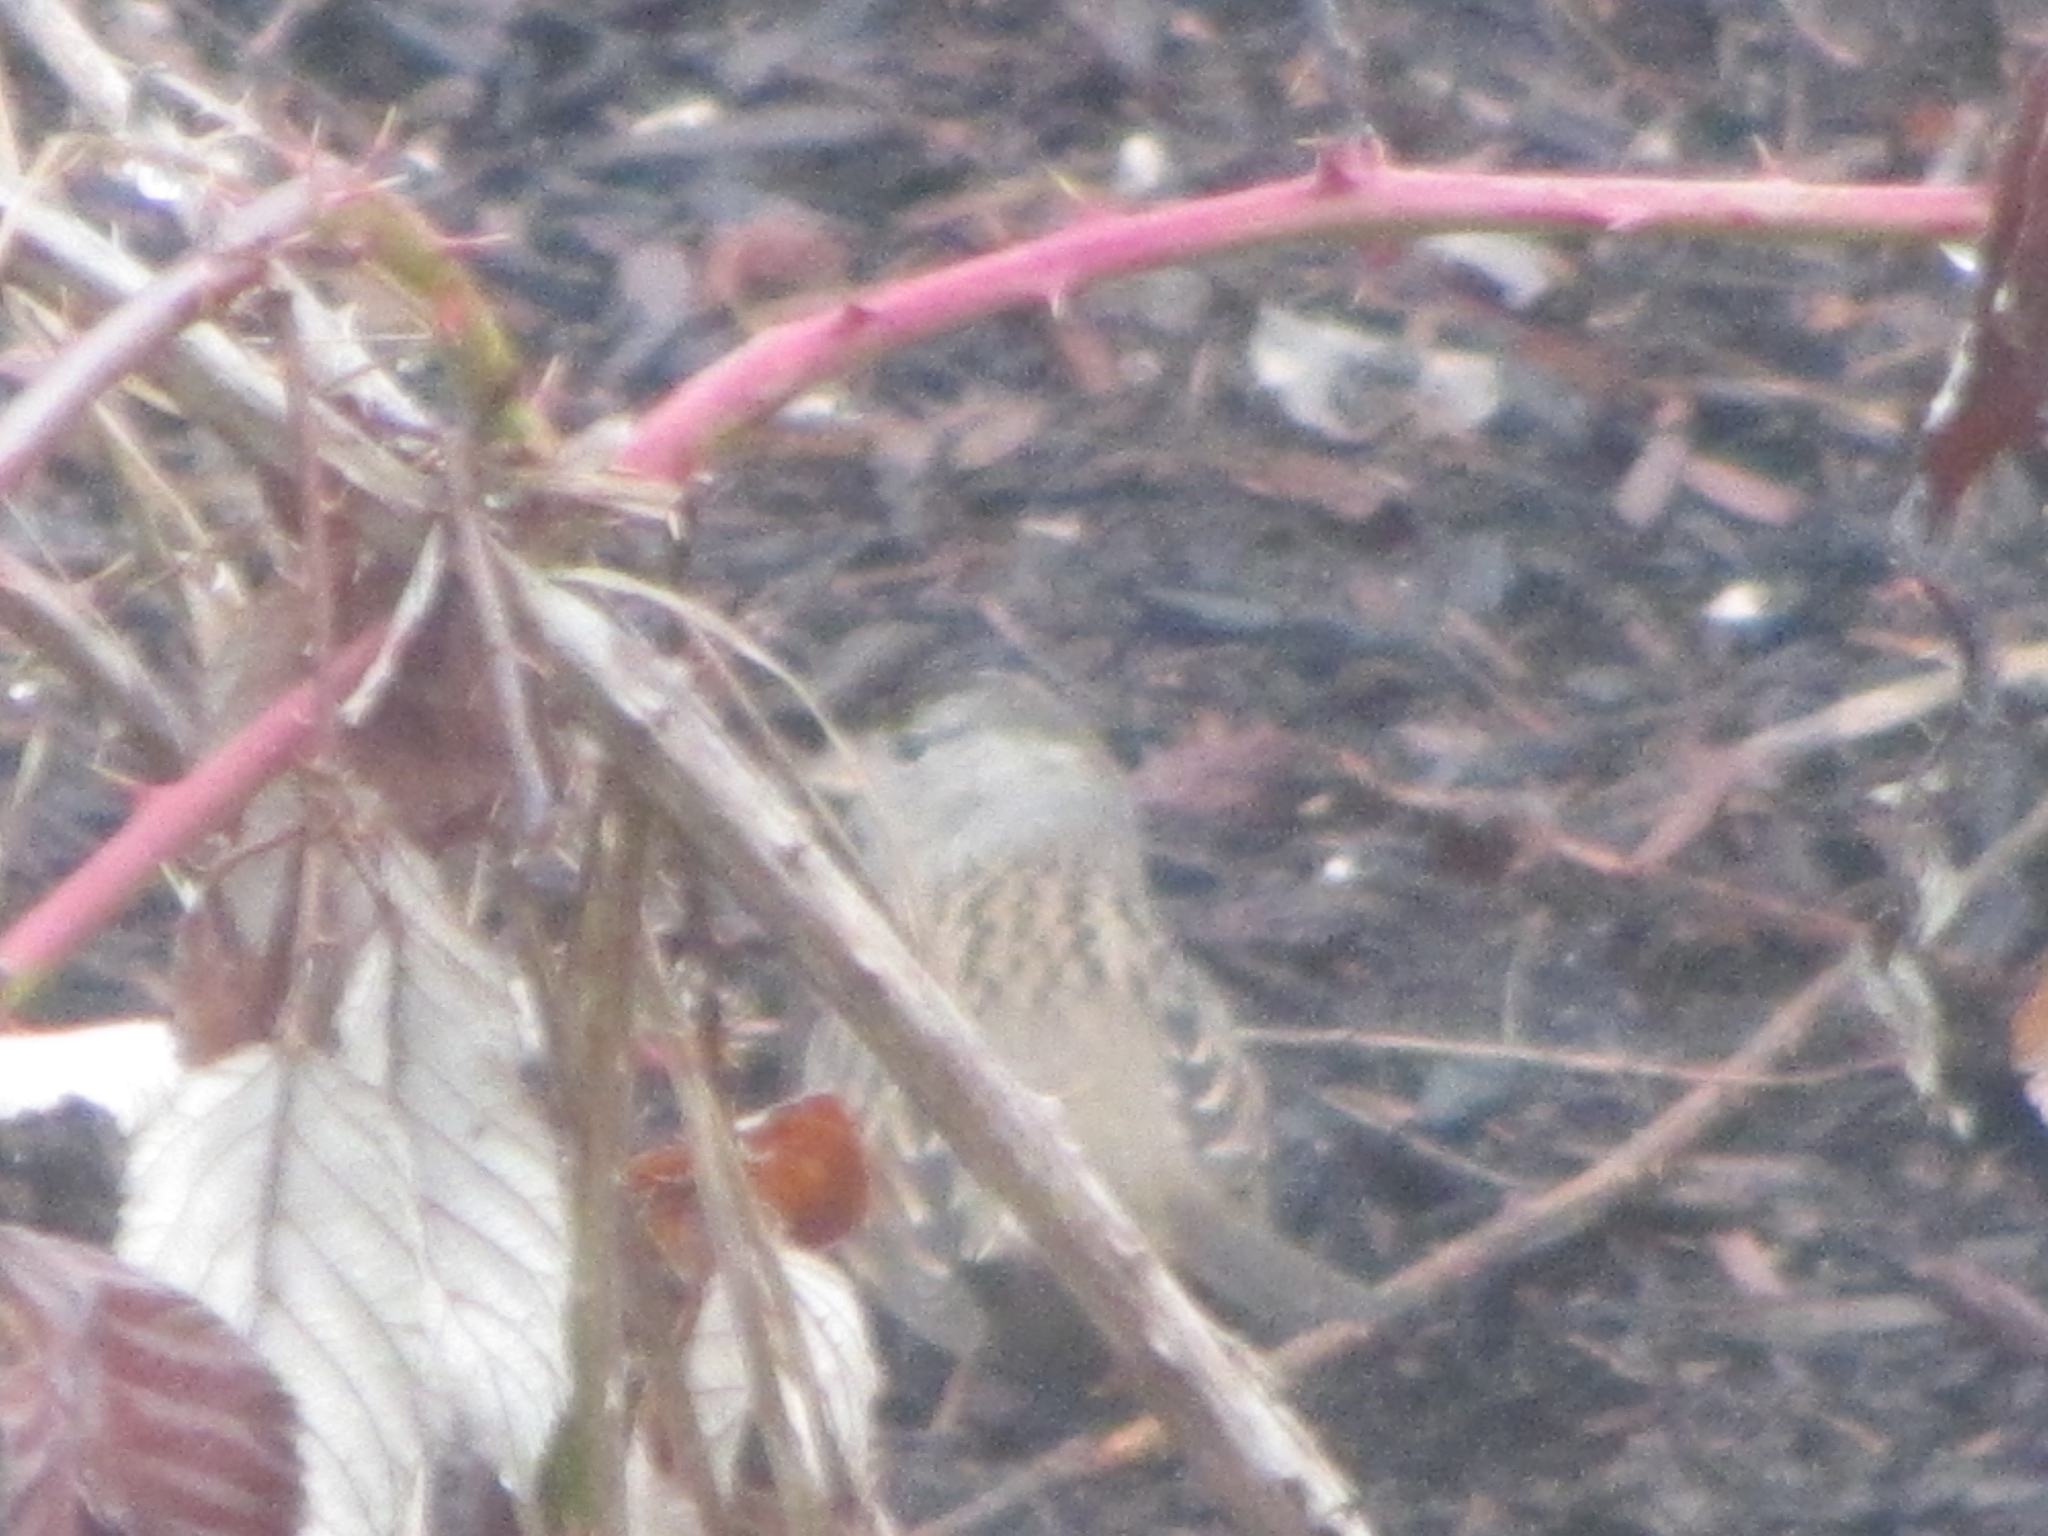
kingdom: Animalia
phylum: Chordata
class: Aves
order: Passeriformes
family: Passerellidae
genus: Zonotrichia
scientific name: Zonotrichia atricapilla
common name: Golden-crowned sparrow
